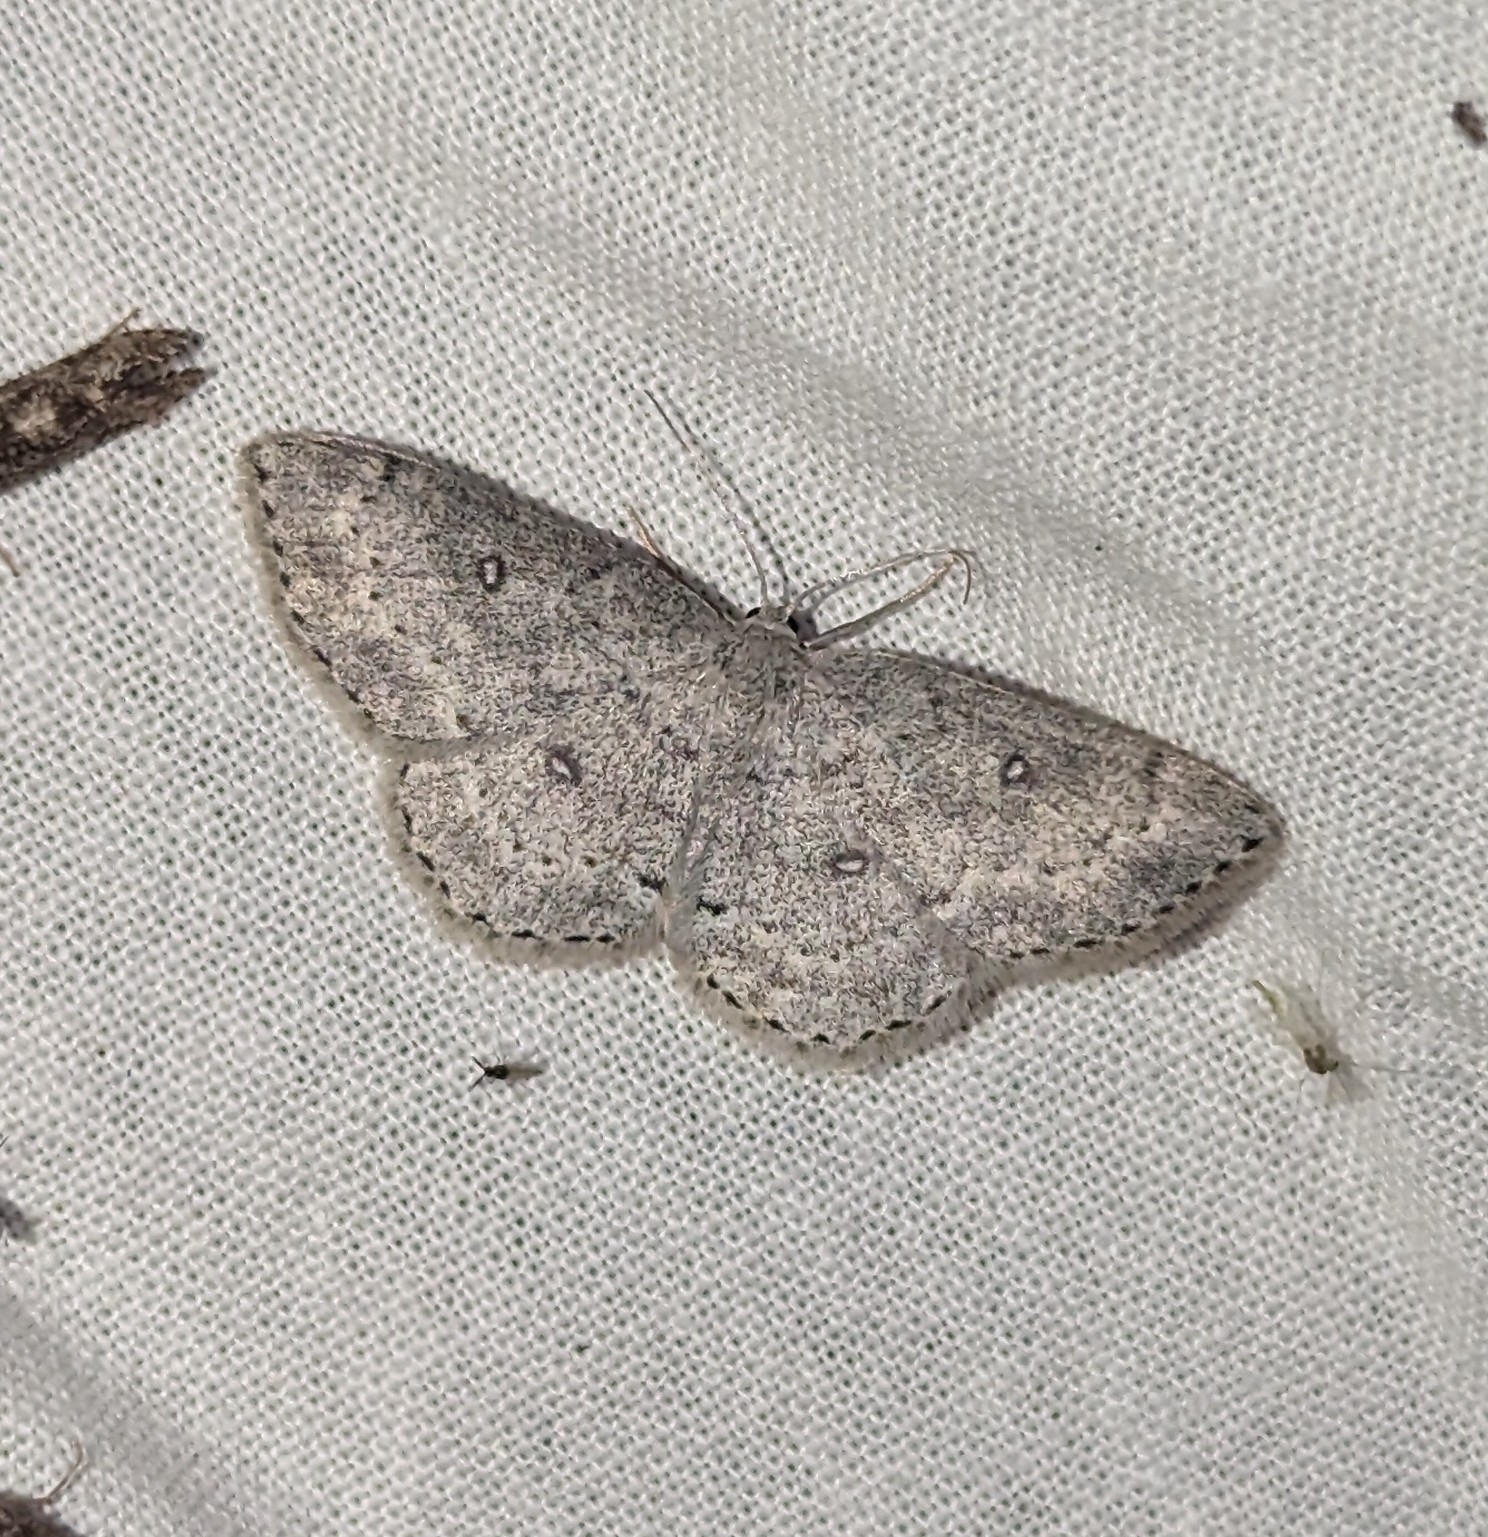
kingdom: Animalia
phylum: Arthropoda
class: Insecta
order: Lepidoptera
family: Geometridae
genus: Cyclophora
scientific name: Cyclophora pendulinaria
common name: Sweet fern geometer
